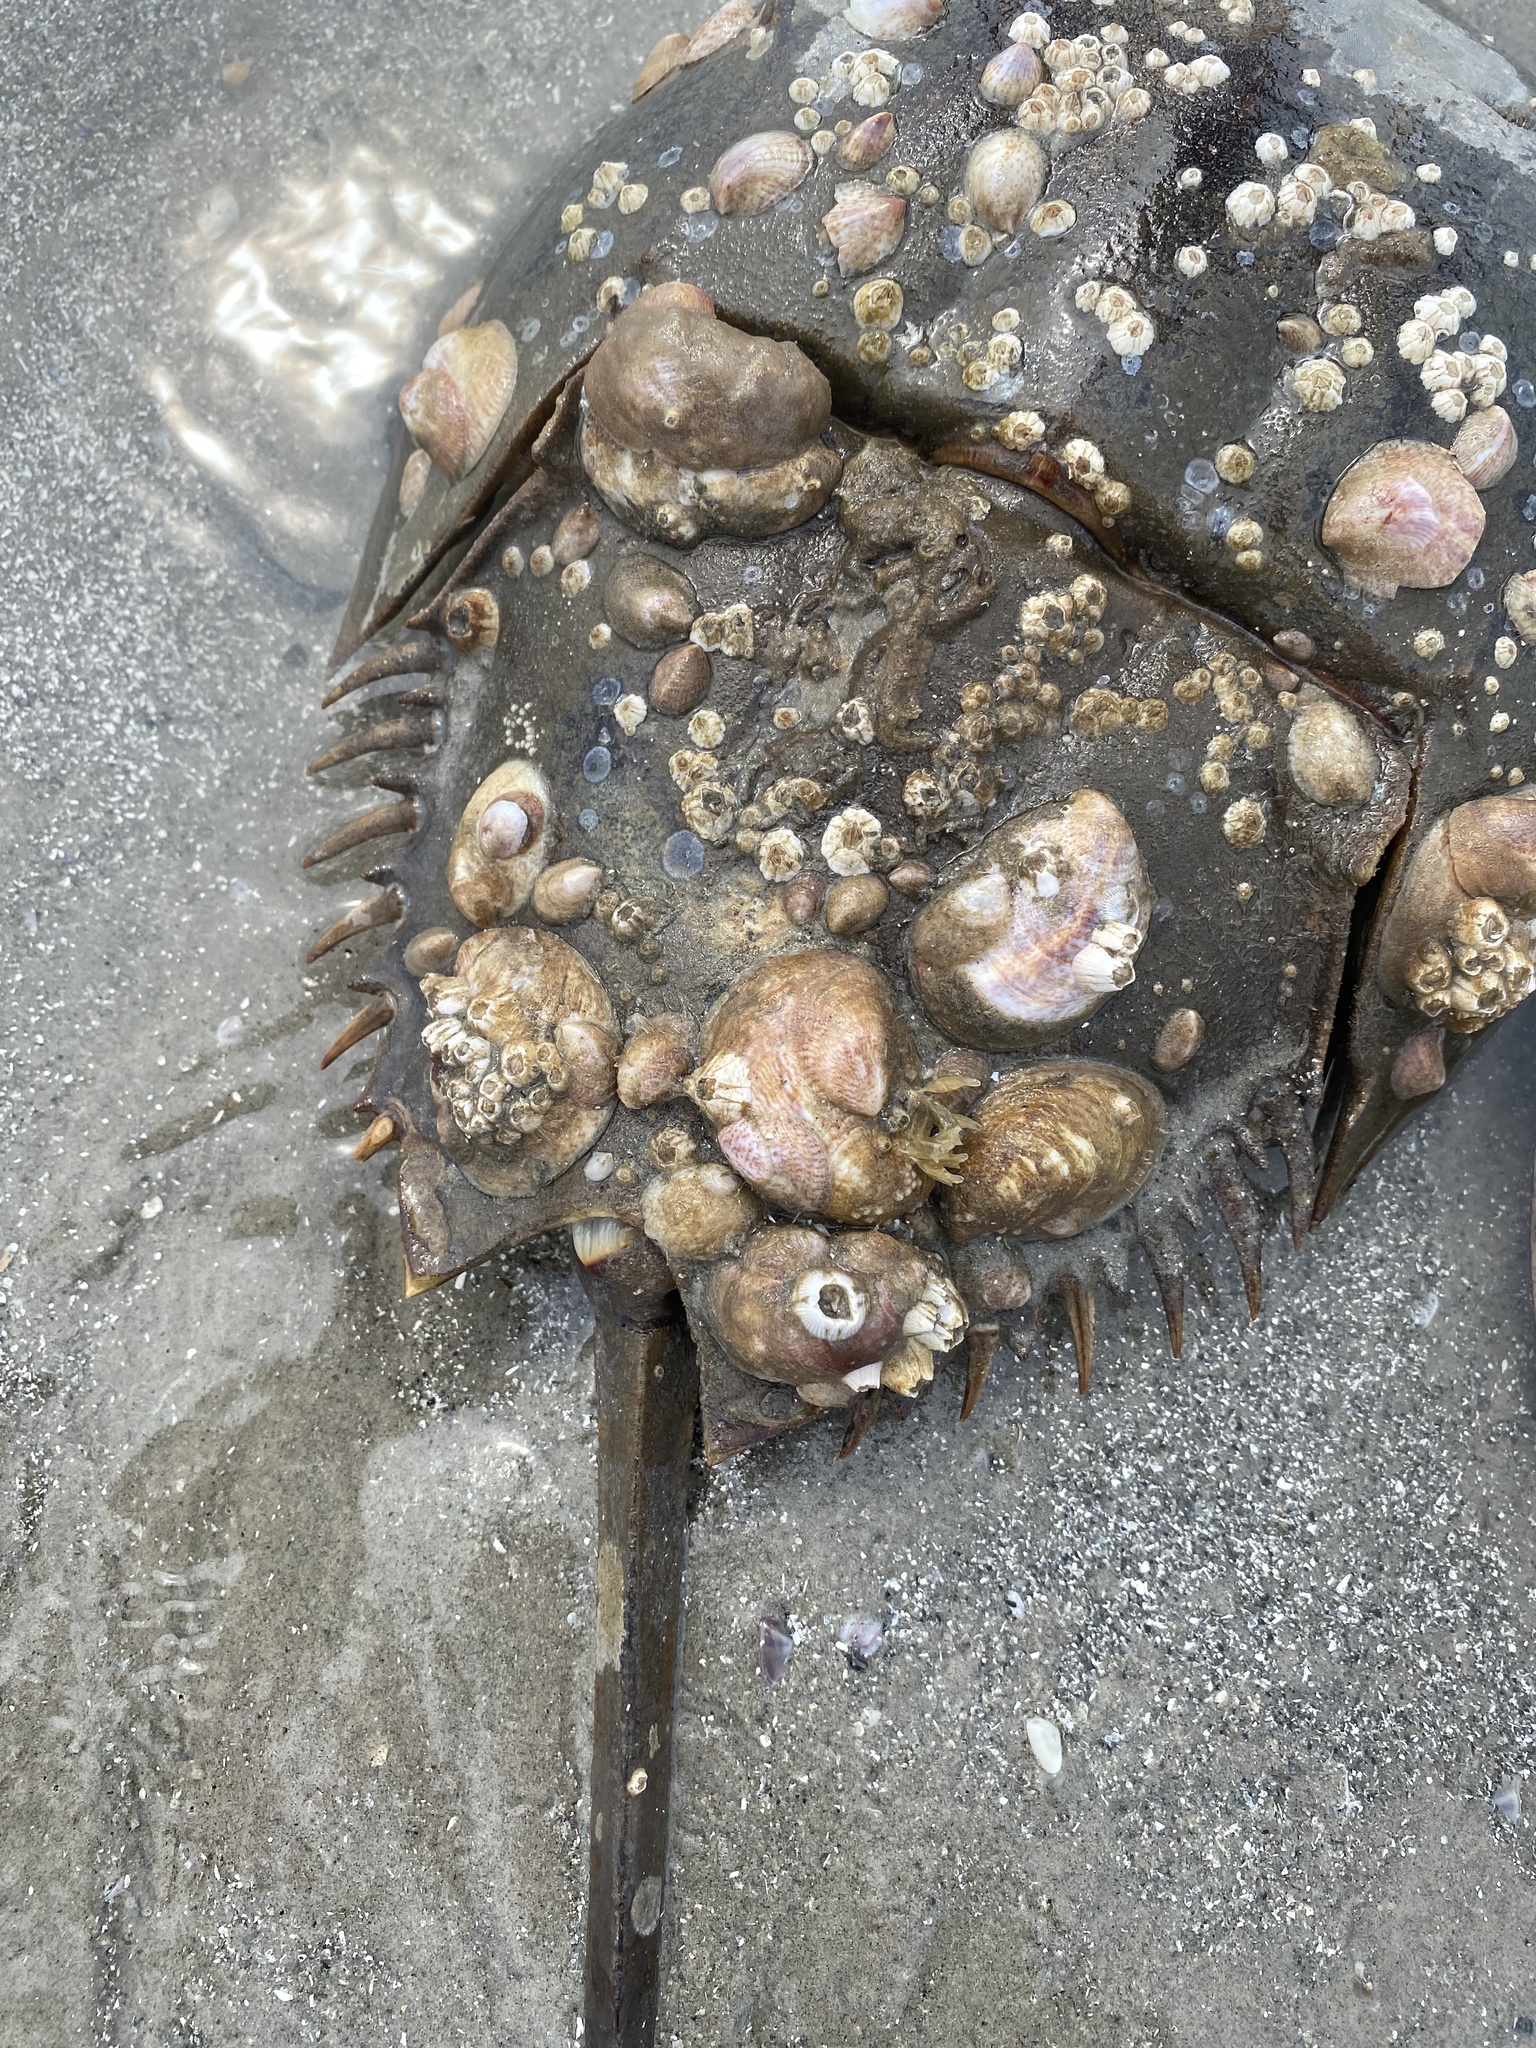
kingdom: Animalia
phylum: Mollusca
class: Gastropoda
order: Littorinimorpha
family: Calyptraeidae
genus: Crepidula
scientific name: Crepidula fornicata
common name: Slipper limpet
